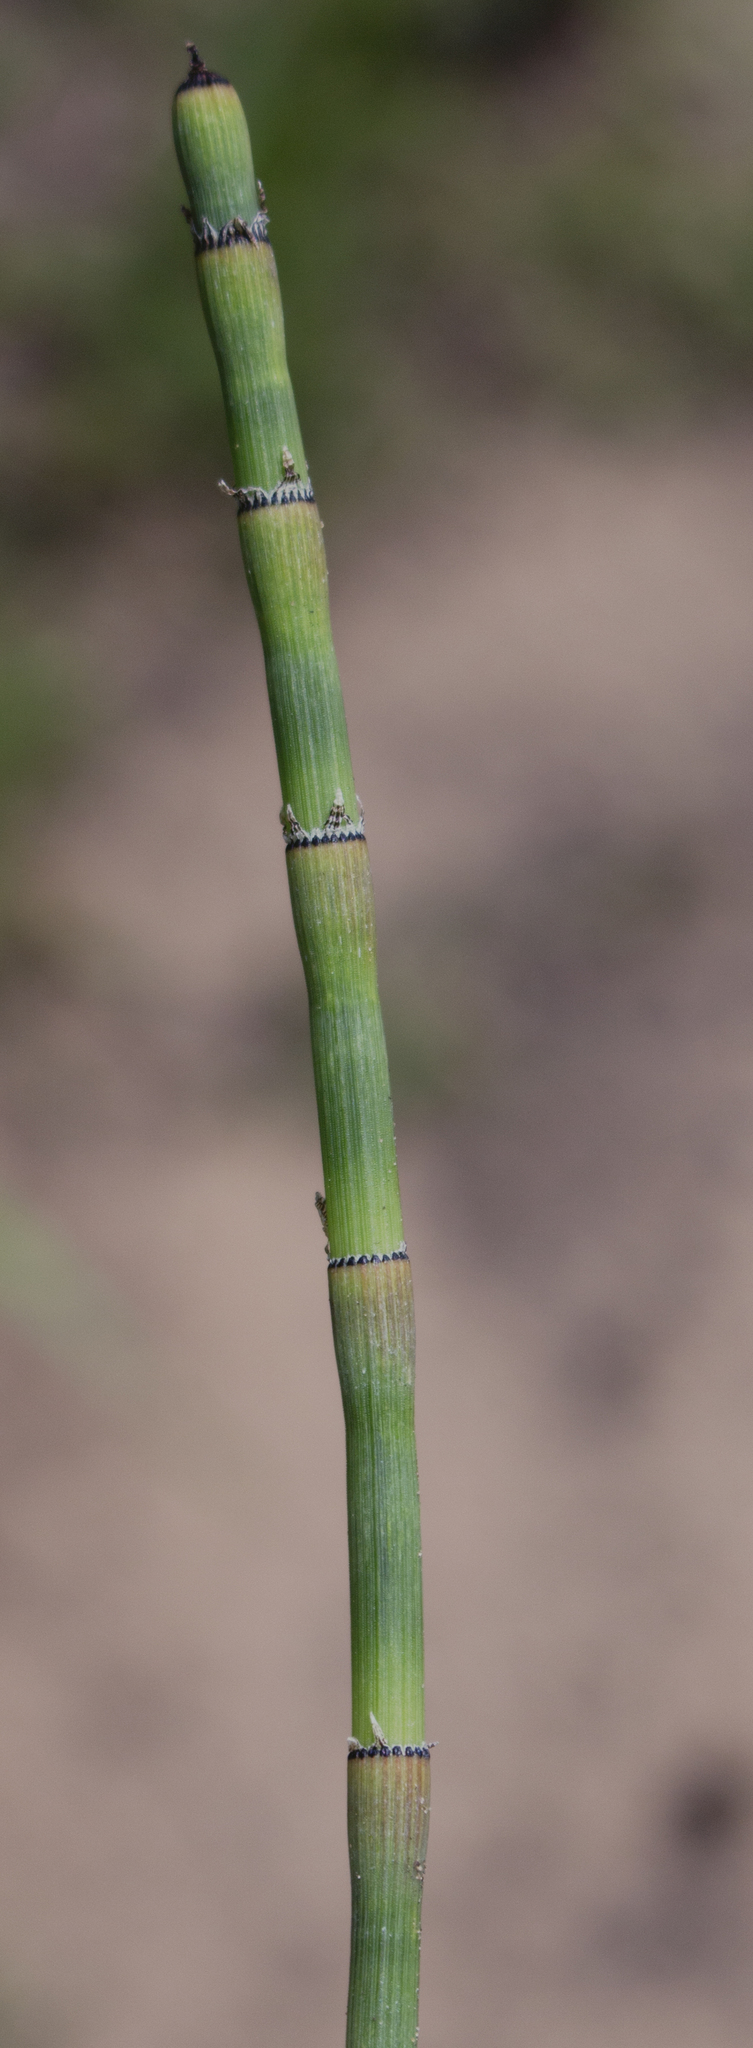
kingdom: Plantae
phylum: Tracheophyta
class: Polypodiopsida
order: Equisetales
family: Equisetaceae
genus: Equisetum
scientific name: Equisetum laevigatum
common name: Smooth scouring-rush
